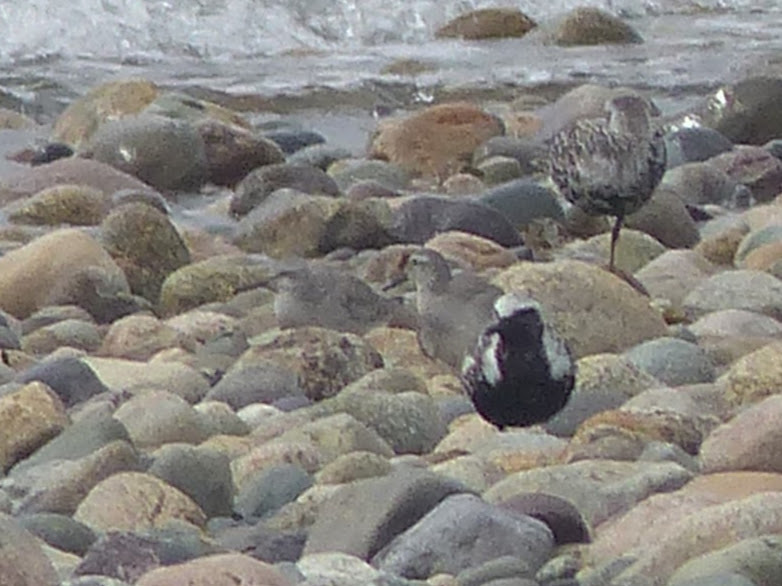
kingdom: Animalia
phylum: Chordata
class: Aves
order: Charadriiformes
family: Scolopacidae
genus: Calidris
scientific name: Calidris canutus
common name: Red knot
